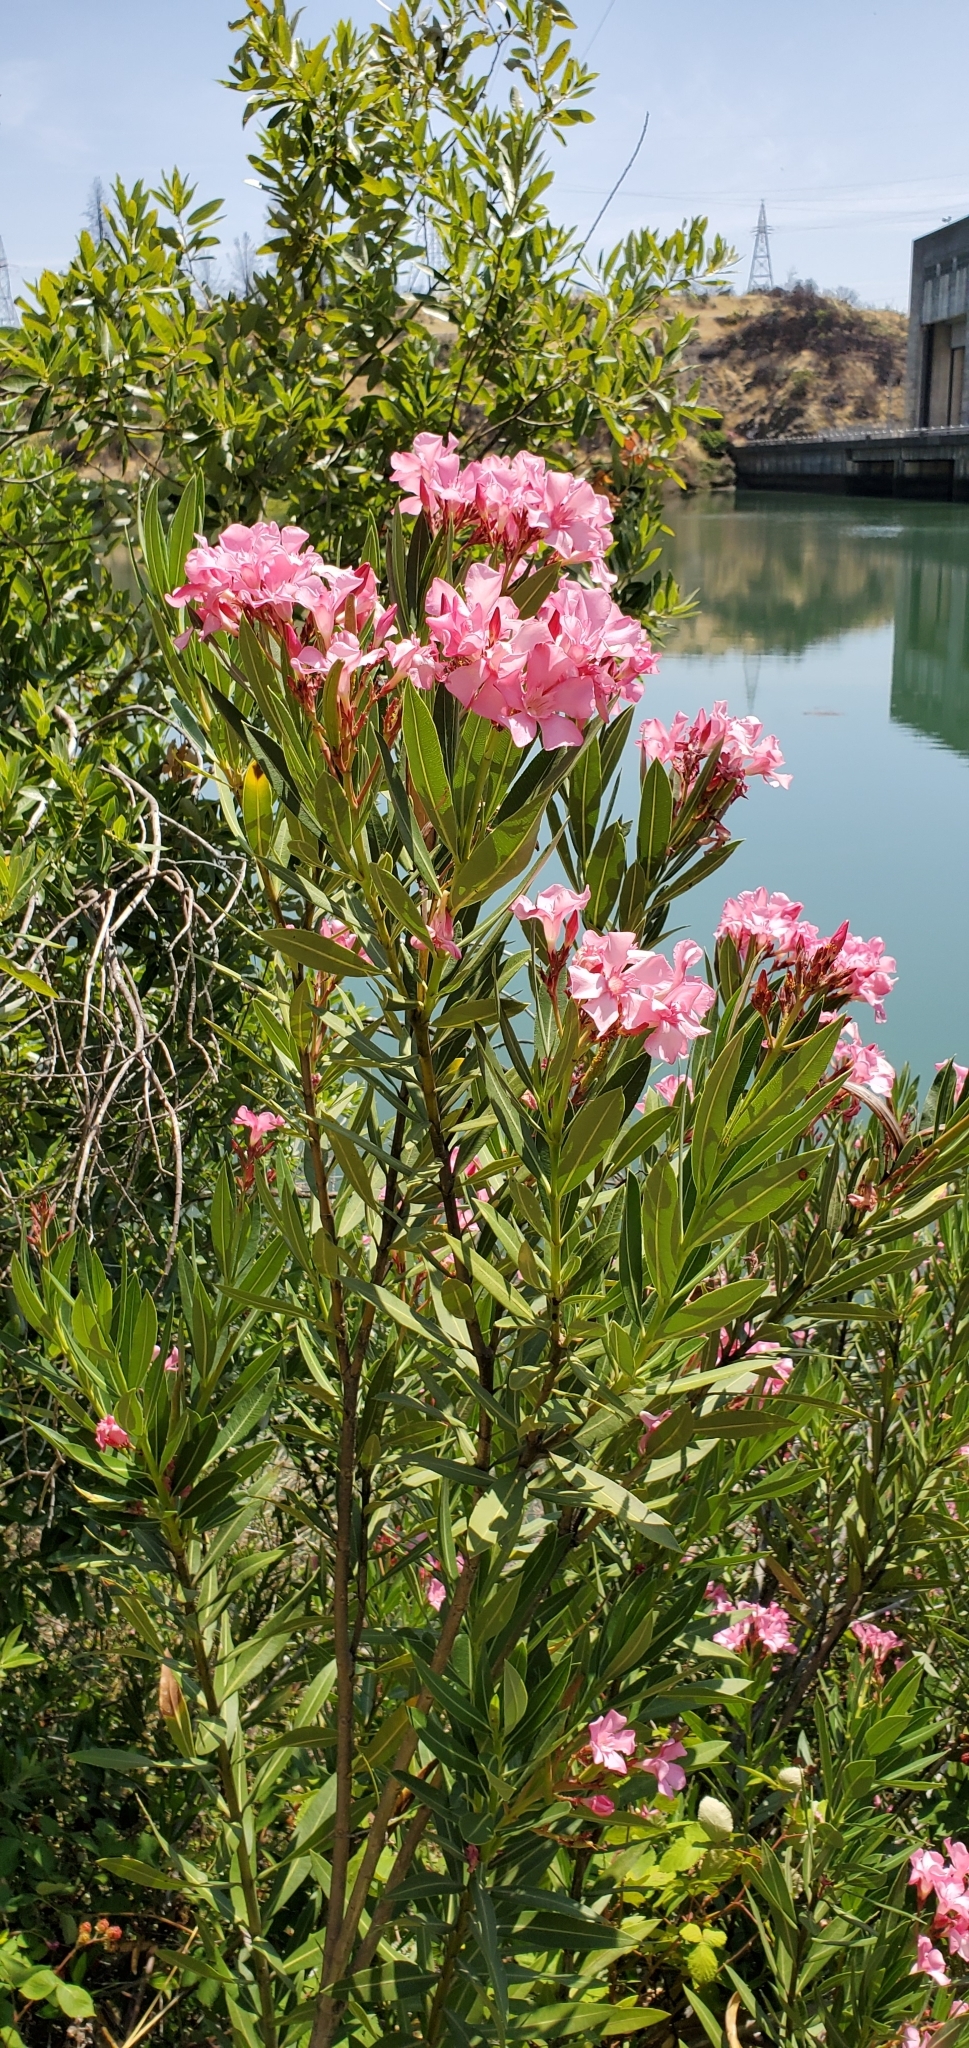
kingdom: Plantae
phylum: Tracheophyta
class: Magnoliopsida
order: Gentianales
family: Apocynaceae
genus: Nerium
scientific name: Nerium oleander
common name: Oleander
